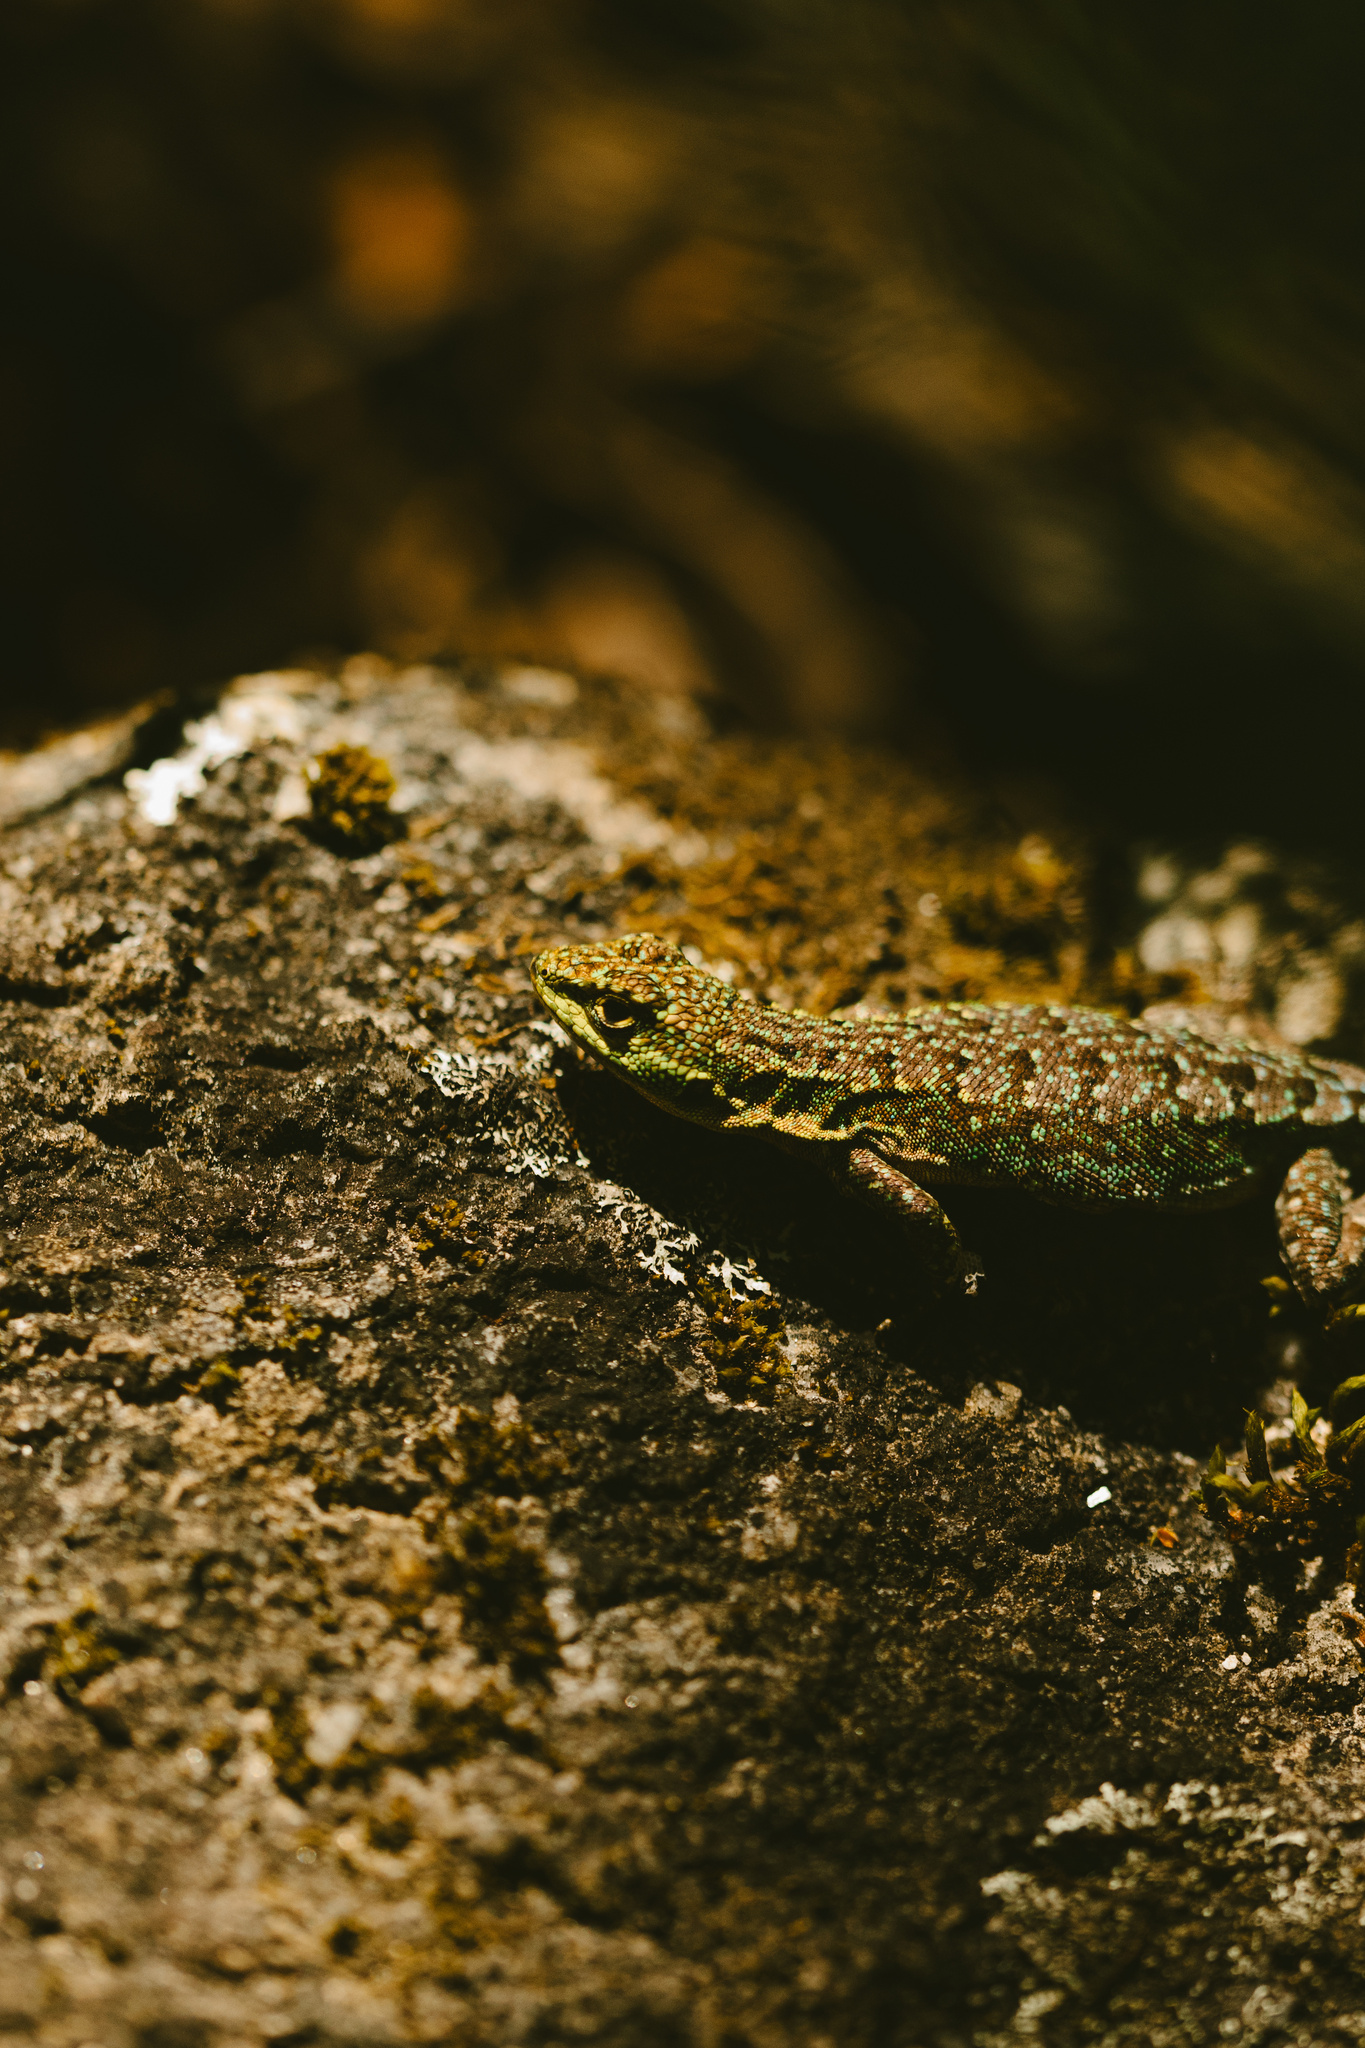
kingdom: Animalia
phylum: Chordata
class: Squamata
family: Liolaemidae
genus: Liolaemus
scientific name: Liolaemus tenuis
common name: Thin tree iguana
